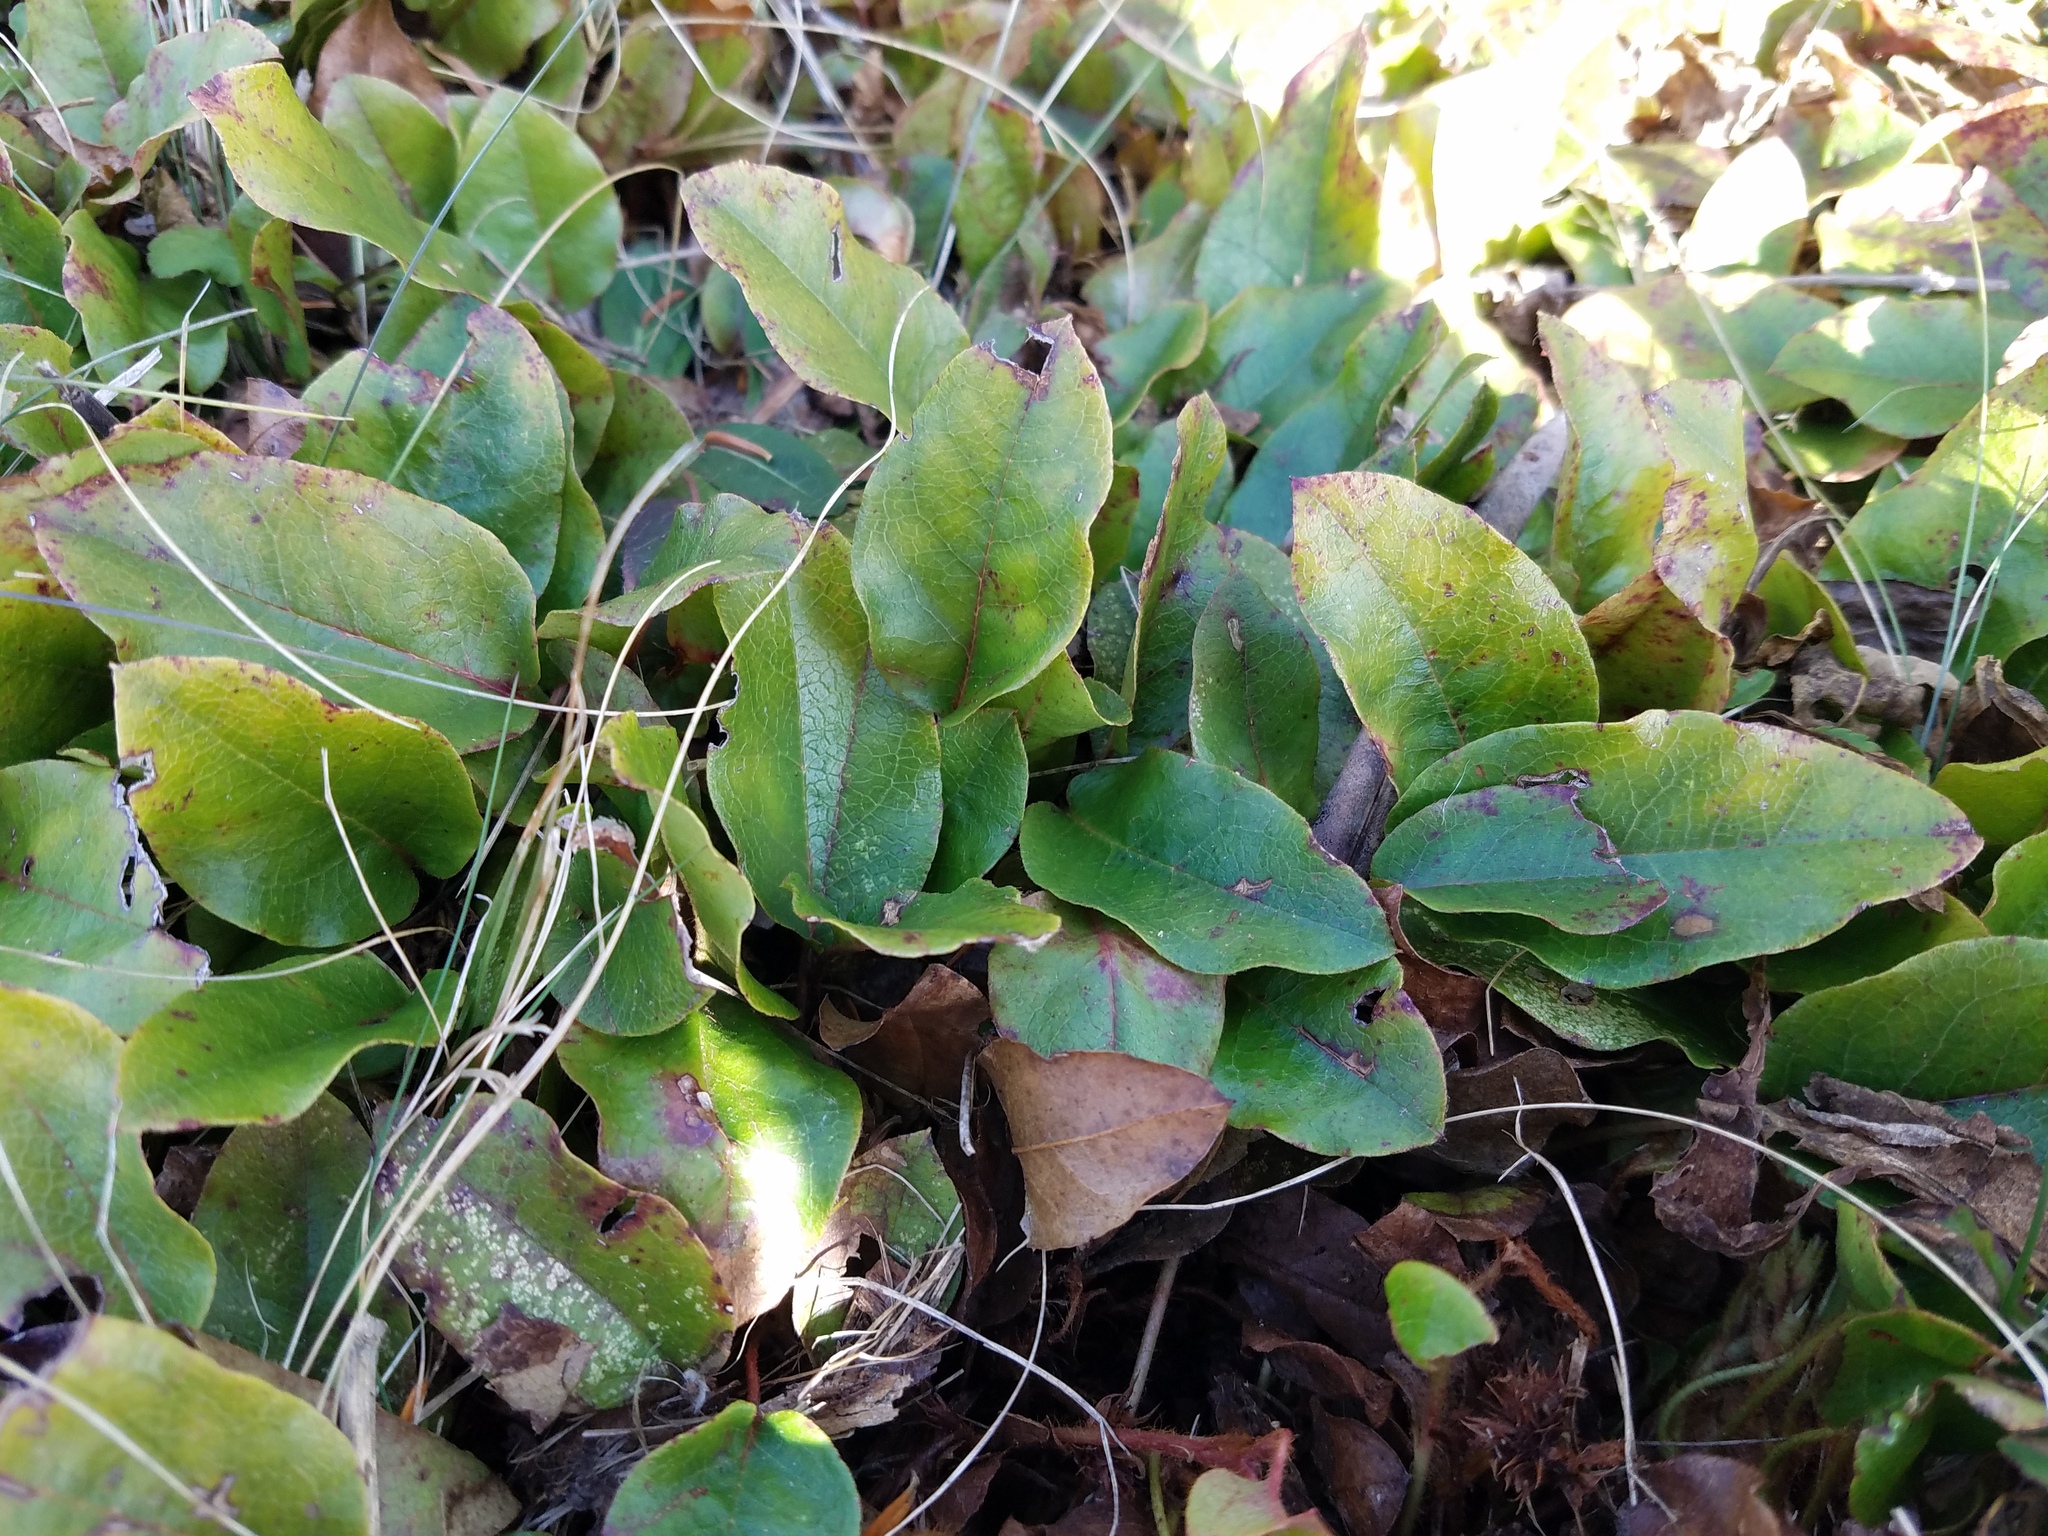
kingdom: Plantae
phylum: Tracheophyta
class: Magnoliopsida
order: Ericales
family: Ericaceae
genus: Epigaea
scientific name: Epigaea repens
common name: Gravelroot
